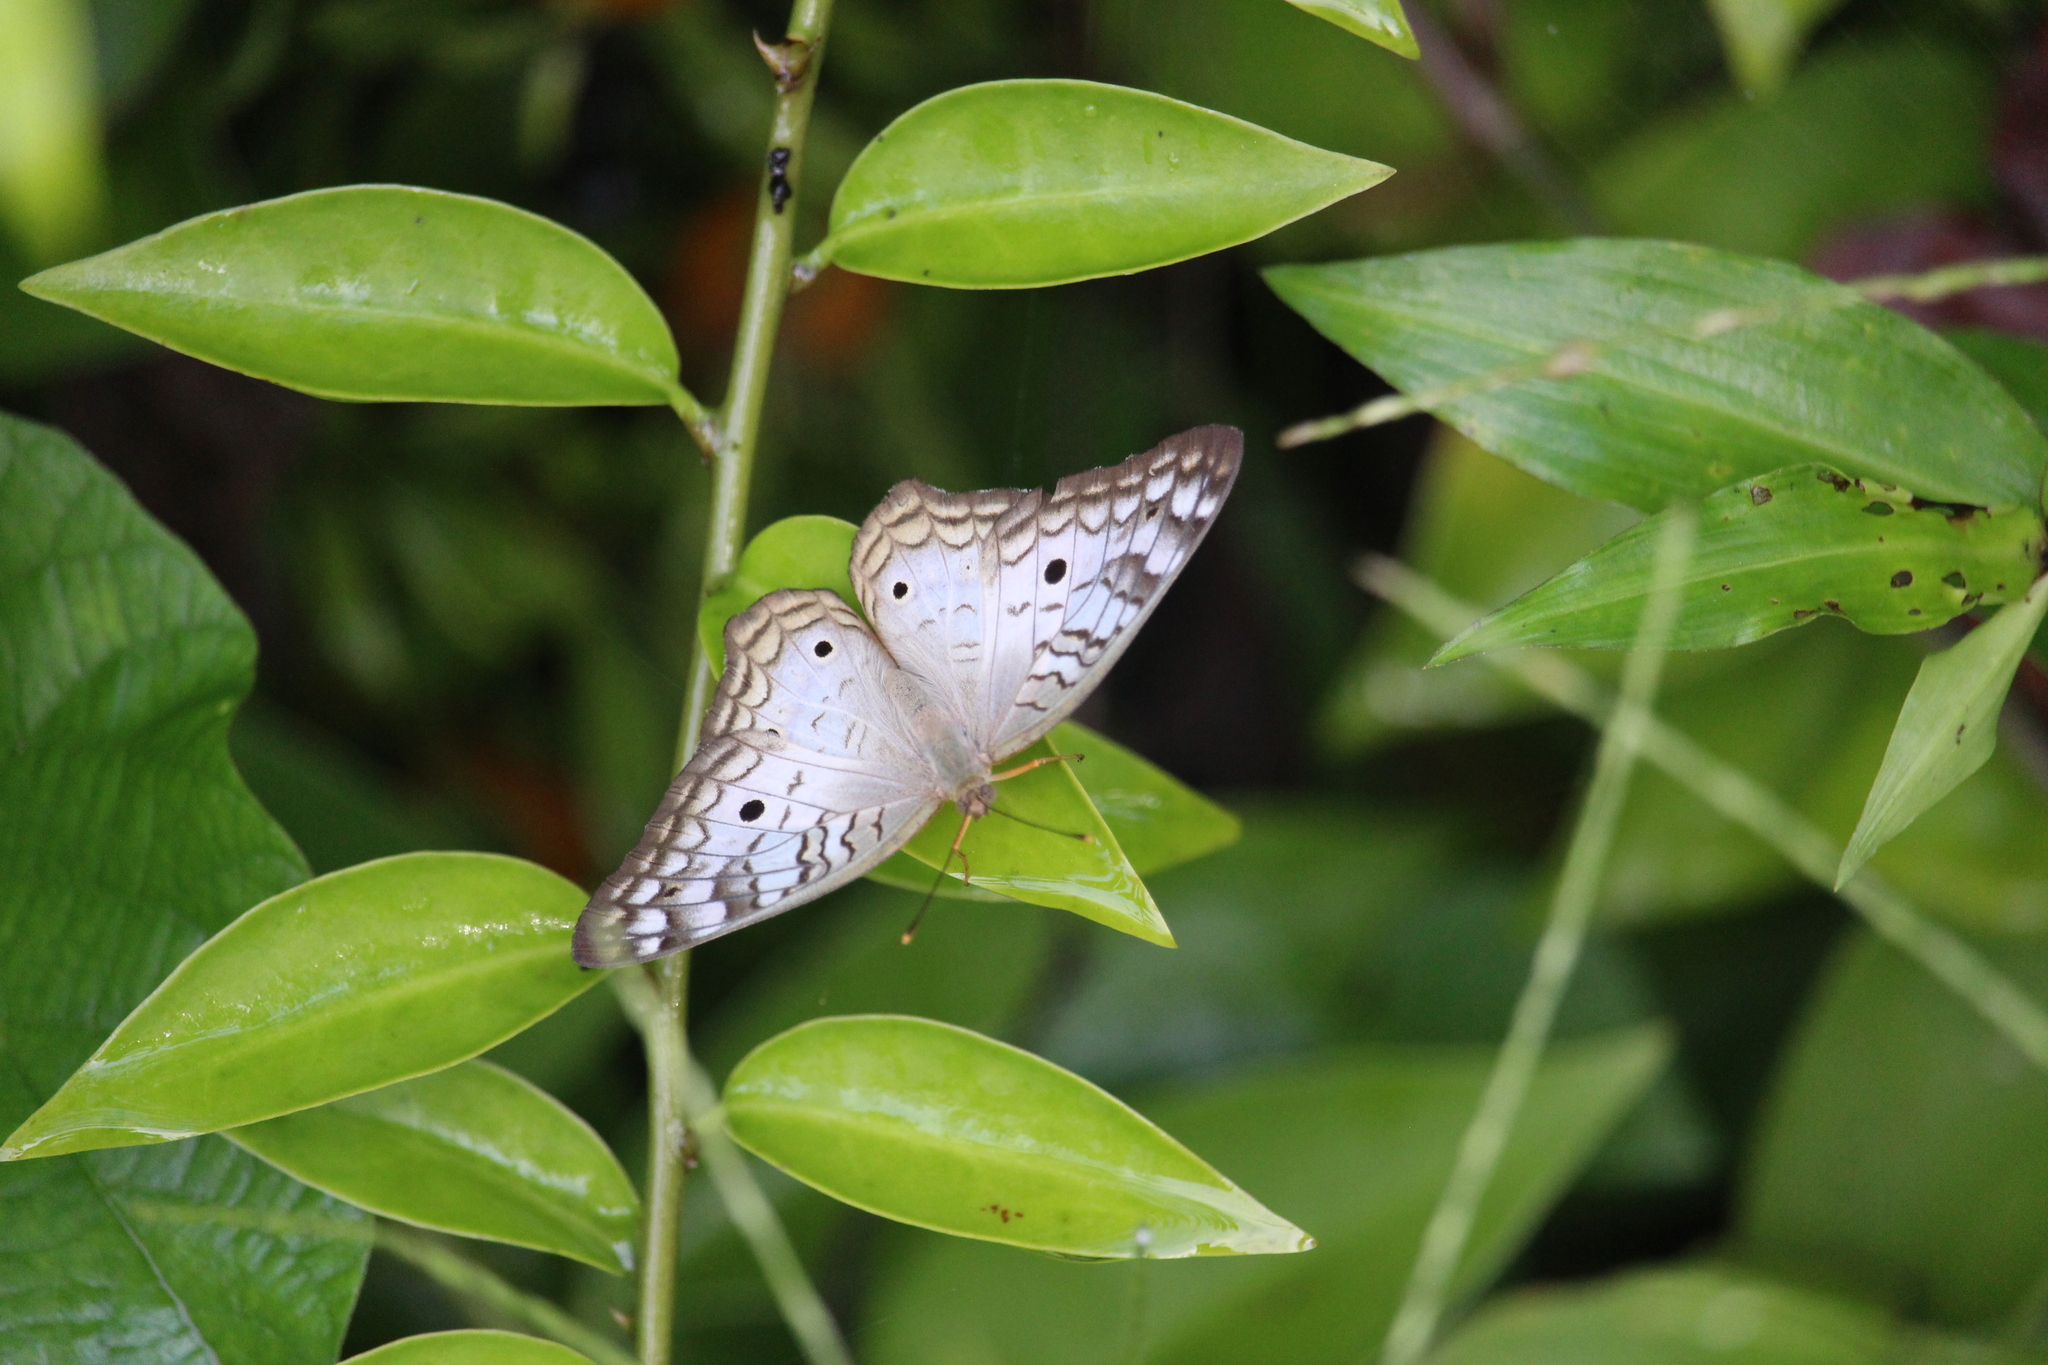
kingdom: Animalia
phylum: Arthropoda
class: Insecta
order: Lepidoptera
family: Nymphalidae
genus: Anartia
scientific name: Anartia jatrophae
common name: White peacock
